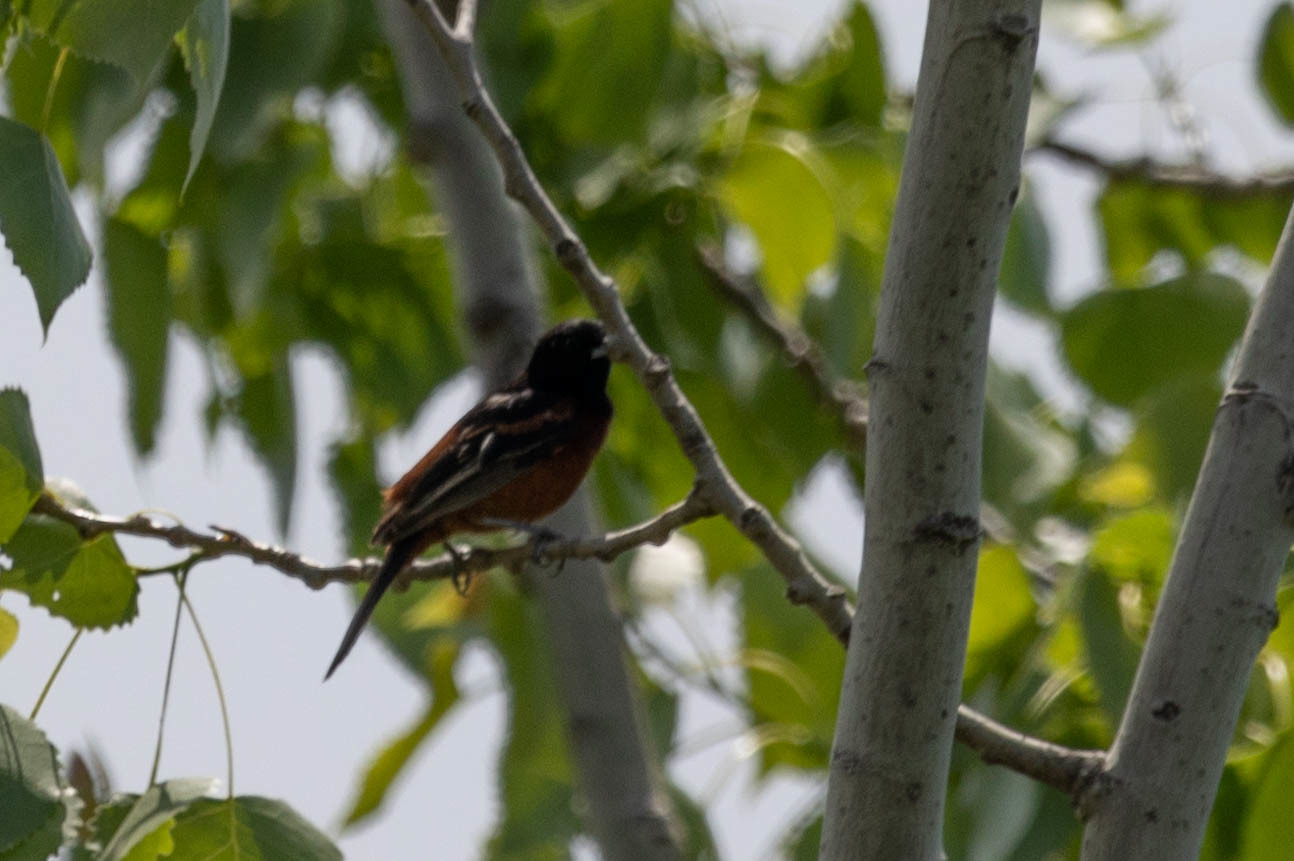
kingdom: Animalia
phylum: Chordata
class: Aves
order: Passeriformes
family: Icteridae
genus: Icterus
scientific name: Icterus spurius
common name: Orchard oriole
